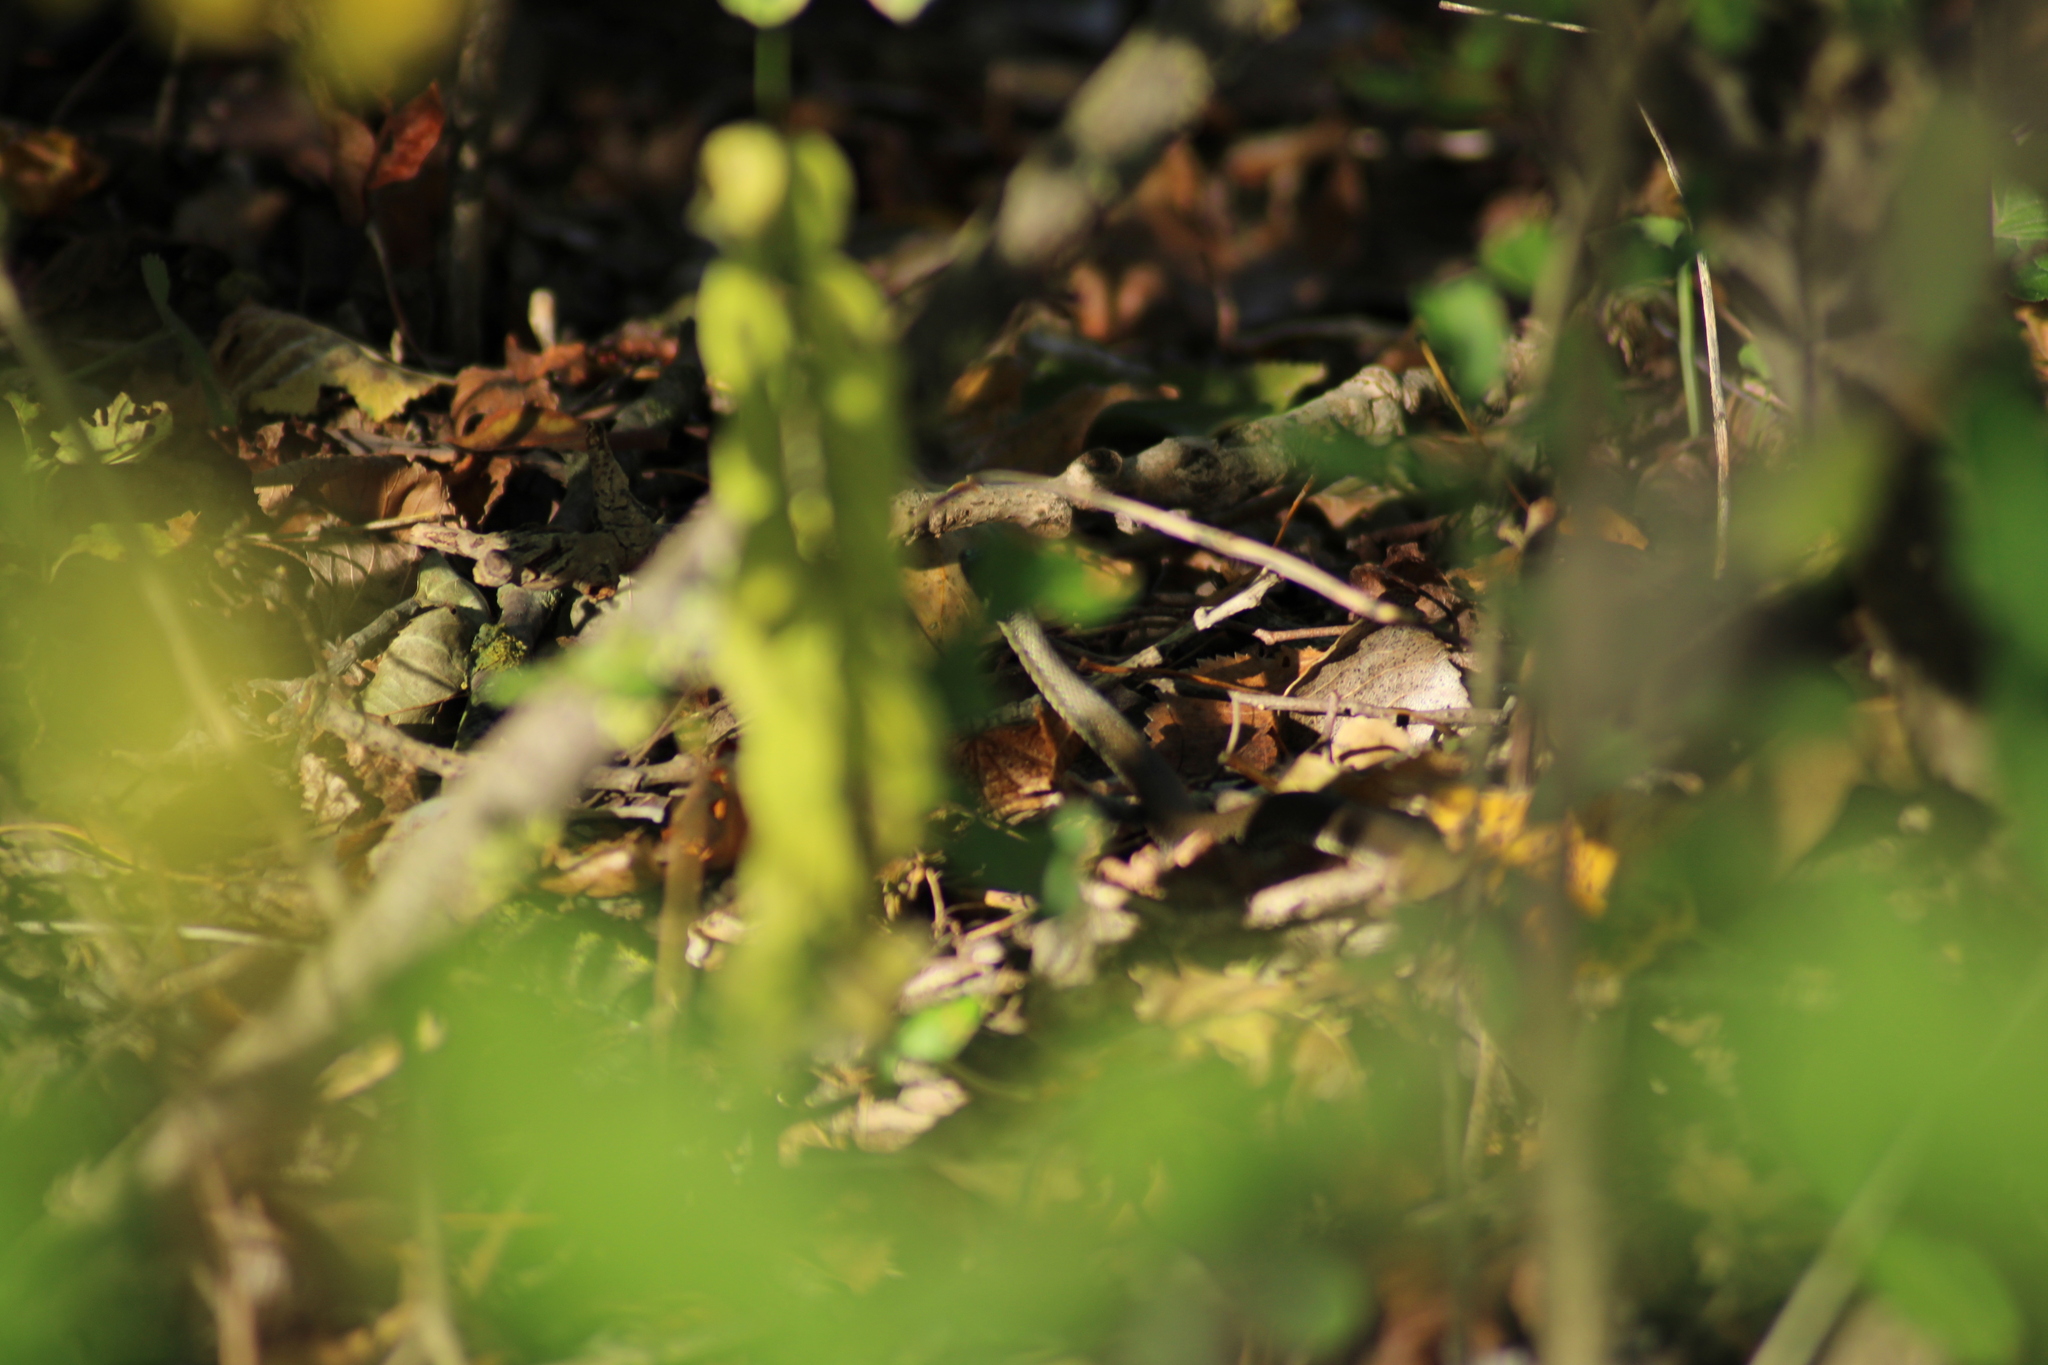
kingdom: Animalia
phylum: Chordata
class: Squamata
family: Colubridae
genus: Natrix
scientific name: Natrix natrix
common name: Grass snake
